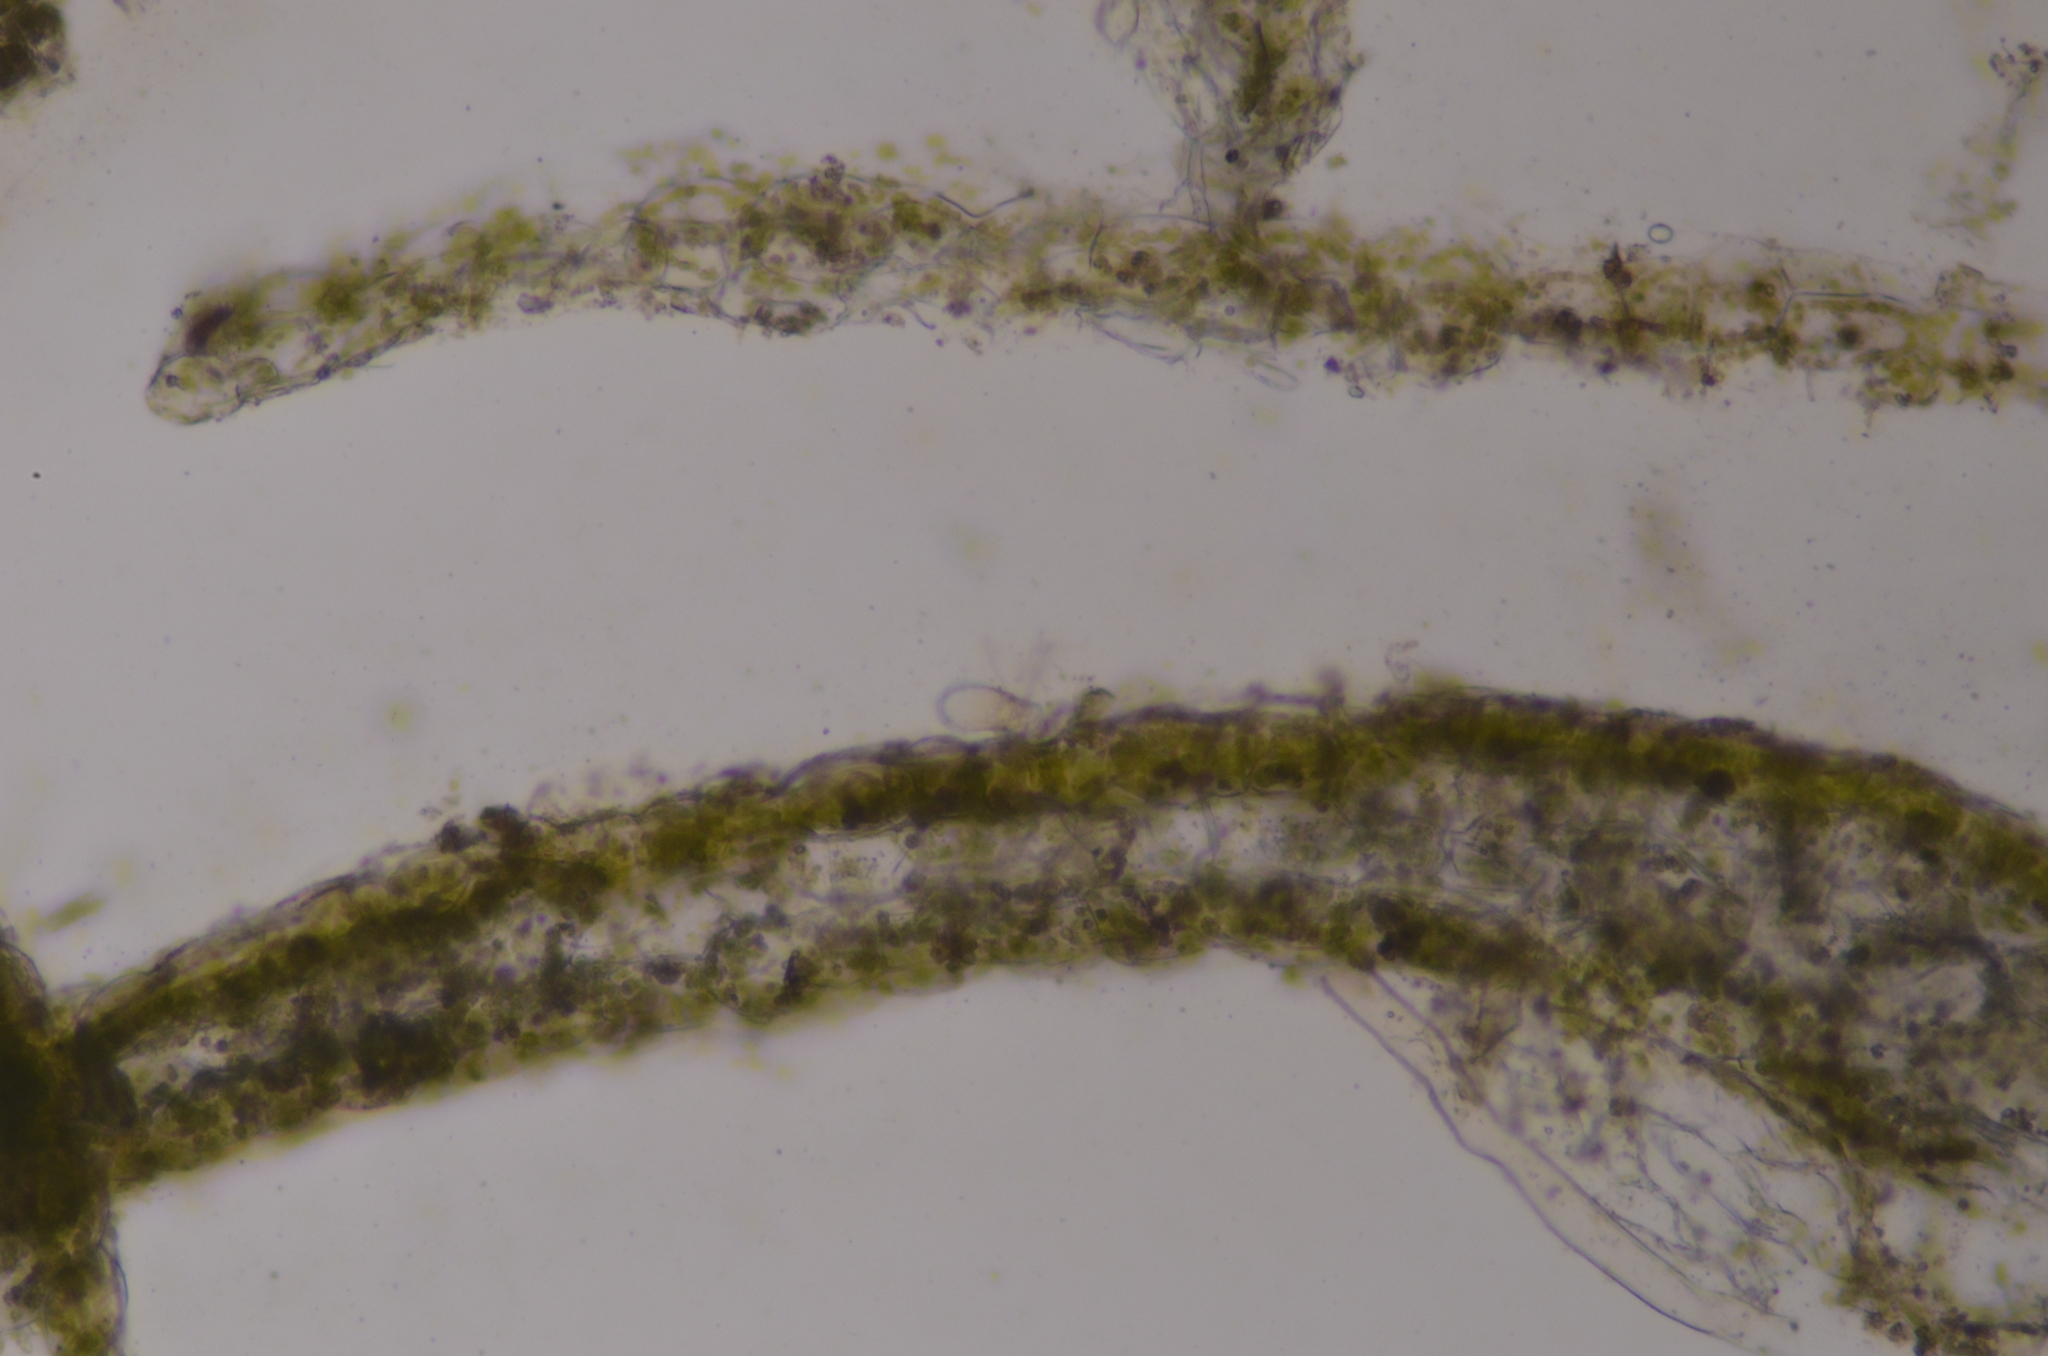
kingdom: Plantae
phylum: Marchantiophyta
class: Jungermanniopsida
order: Pelliales
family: Pelliaceae
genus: Pellia
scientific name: Pellia neesiana
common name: Nees  pellia
